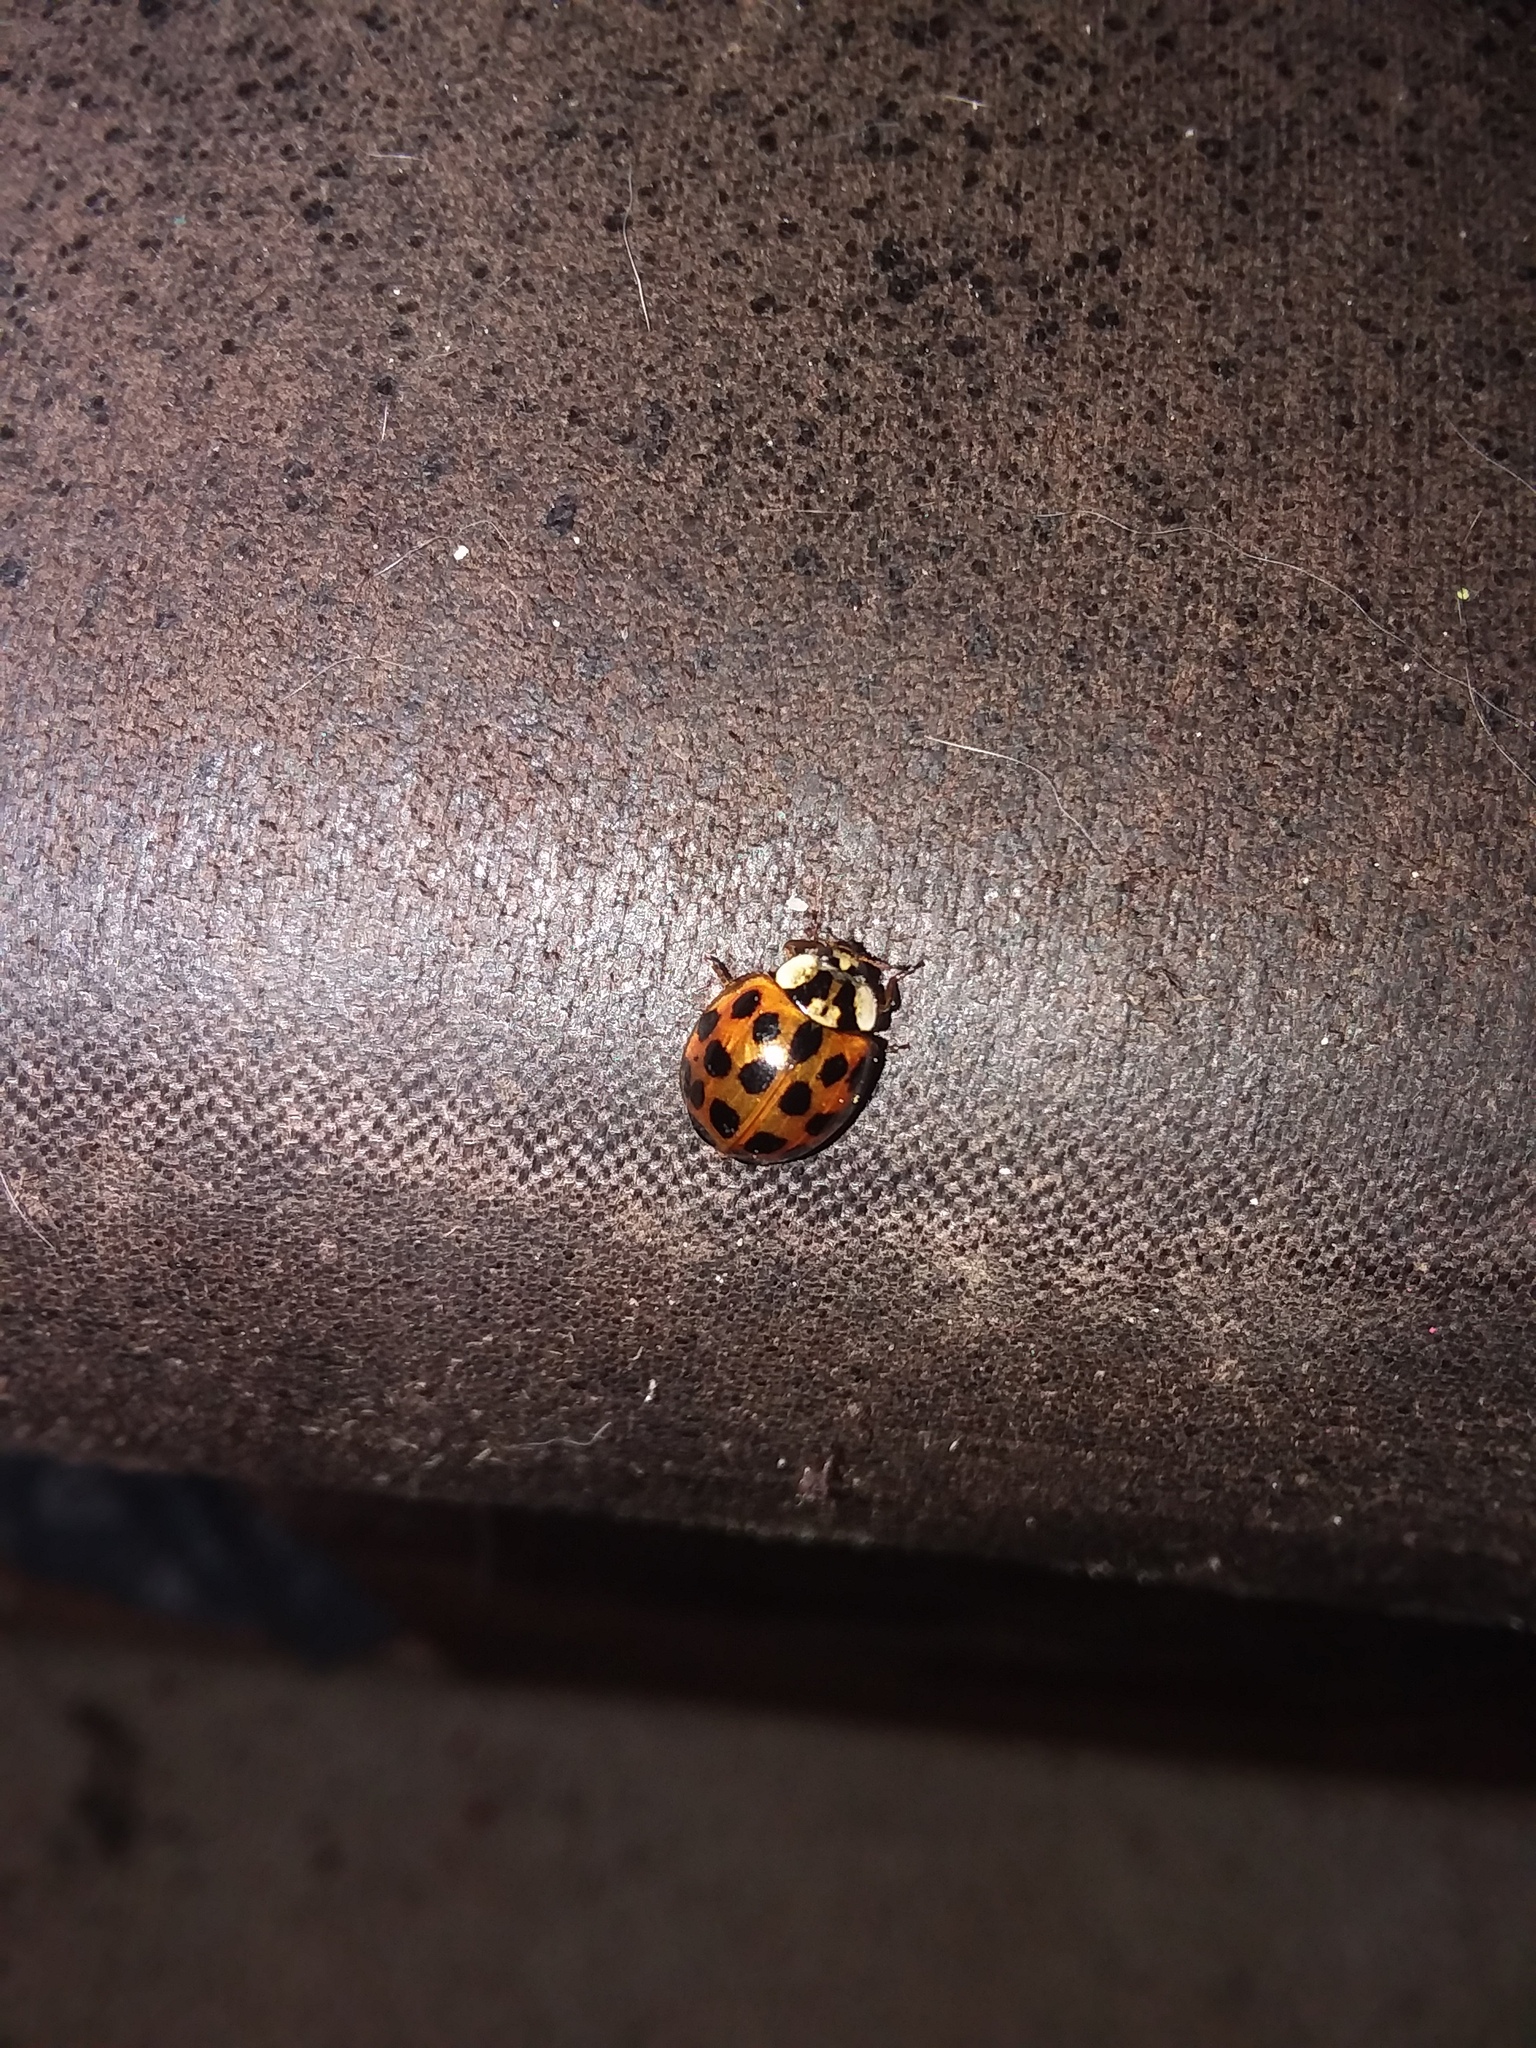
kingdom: Animalia
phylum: Arthropoda
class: Insecta
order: Coleoptera
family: Coccinellidae
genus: Harmonia
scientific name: Harmonia axyridis
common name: Harlequin ladybird
